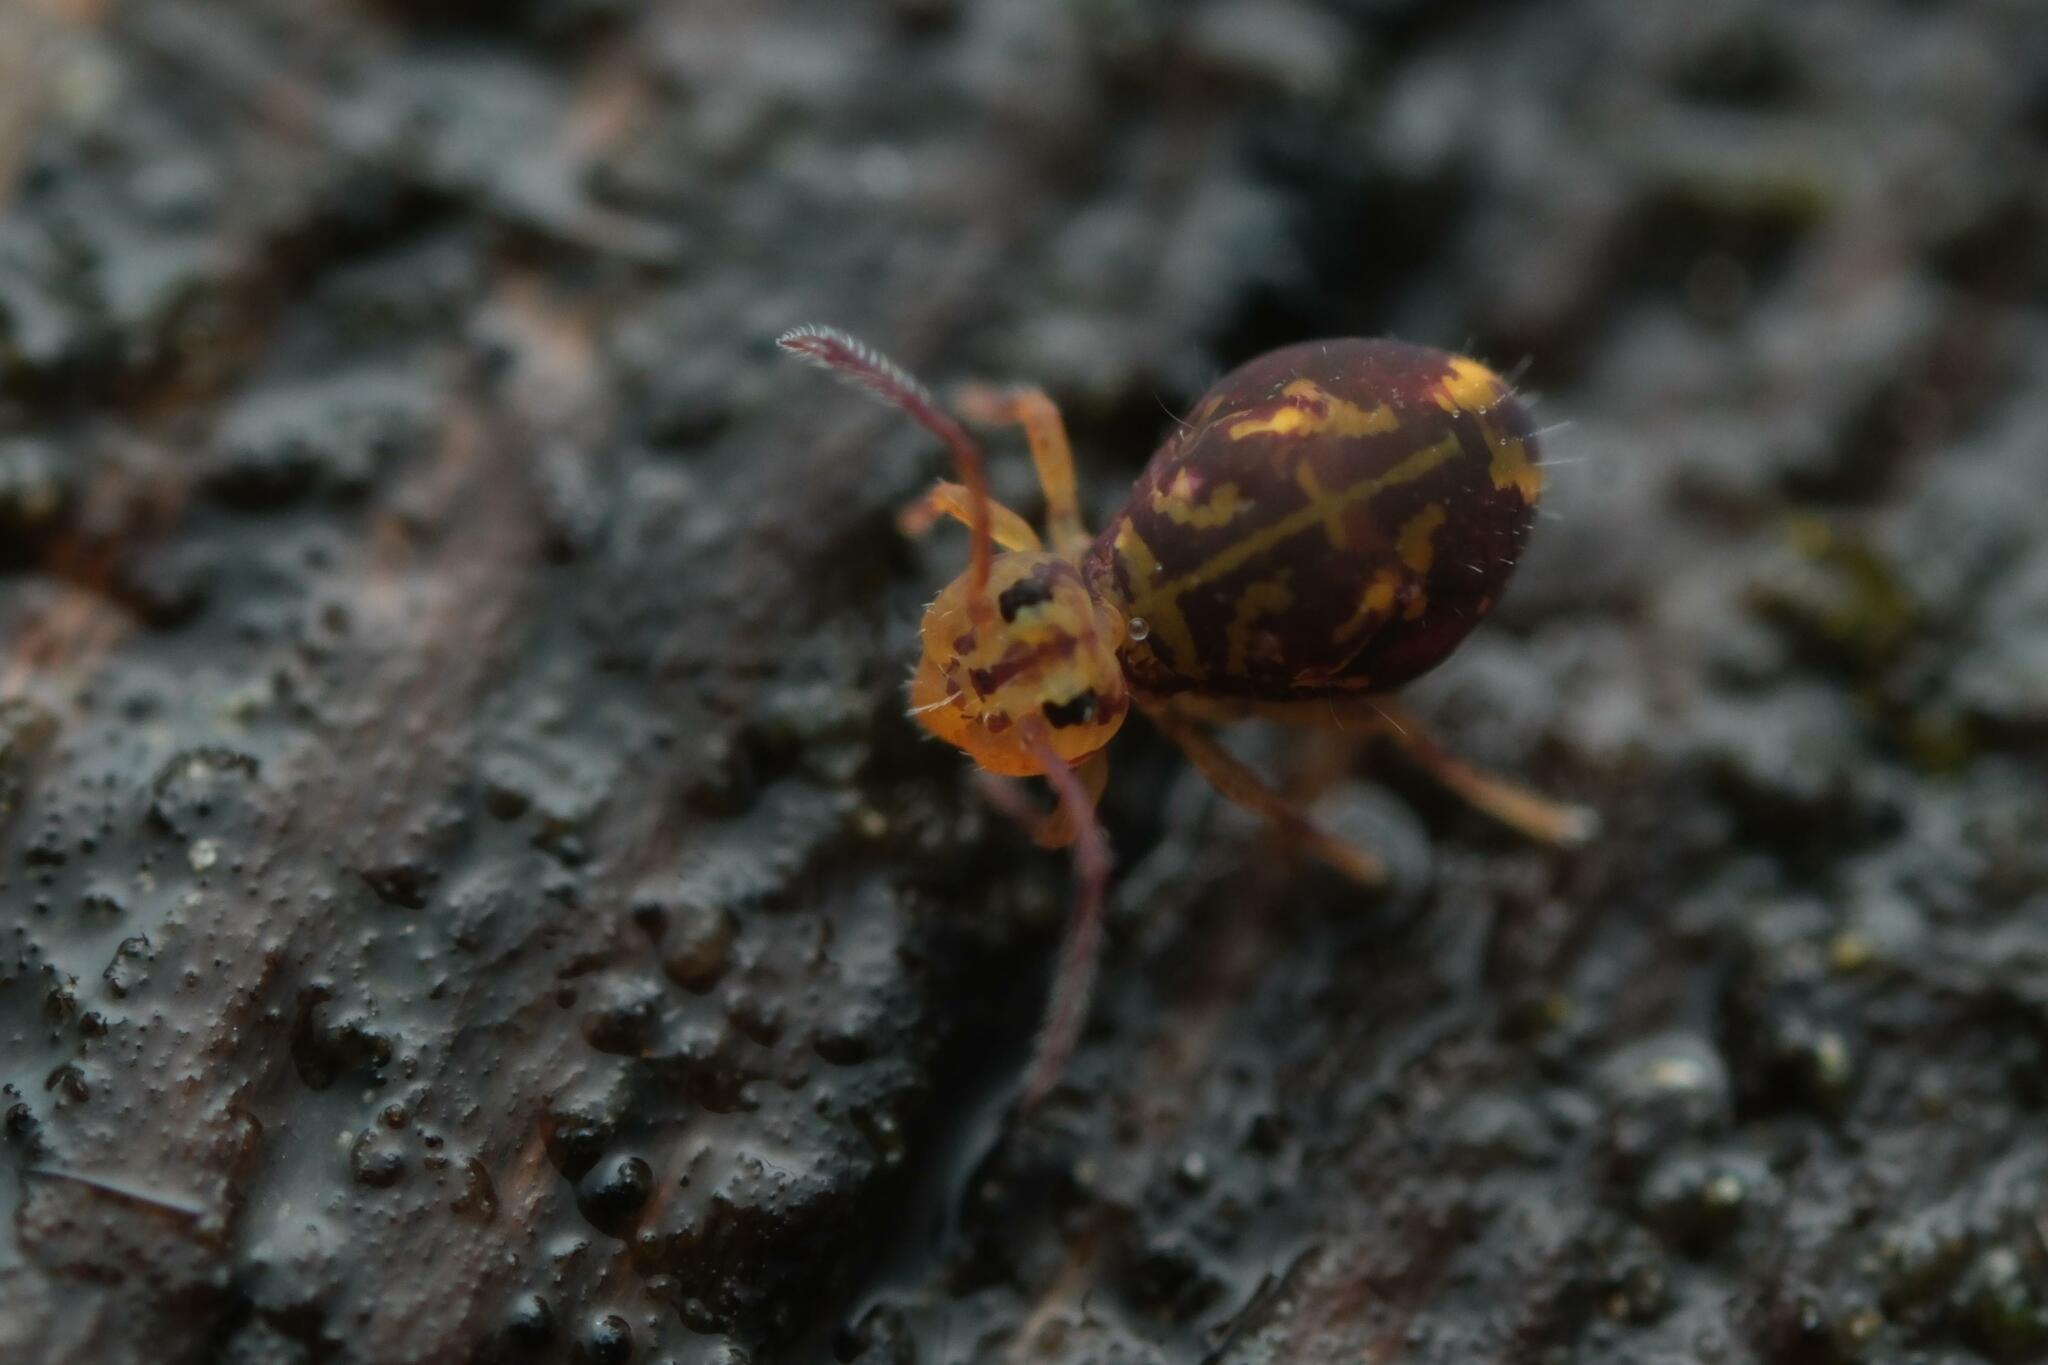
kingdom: Animalia
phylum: Arthropoda
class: Collembola
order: Symphypleona
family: Dicyrtomidae
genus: Dicyrtomina
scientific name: Dicyrtomina ornata
